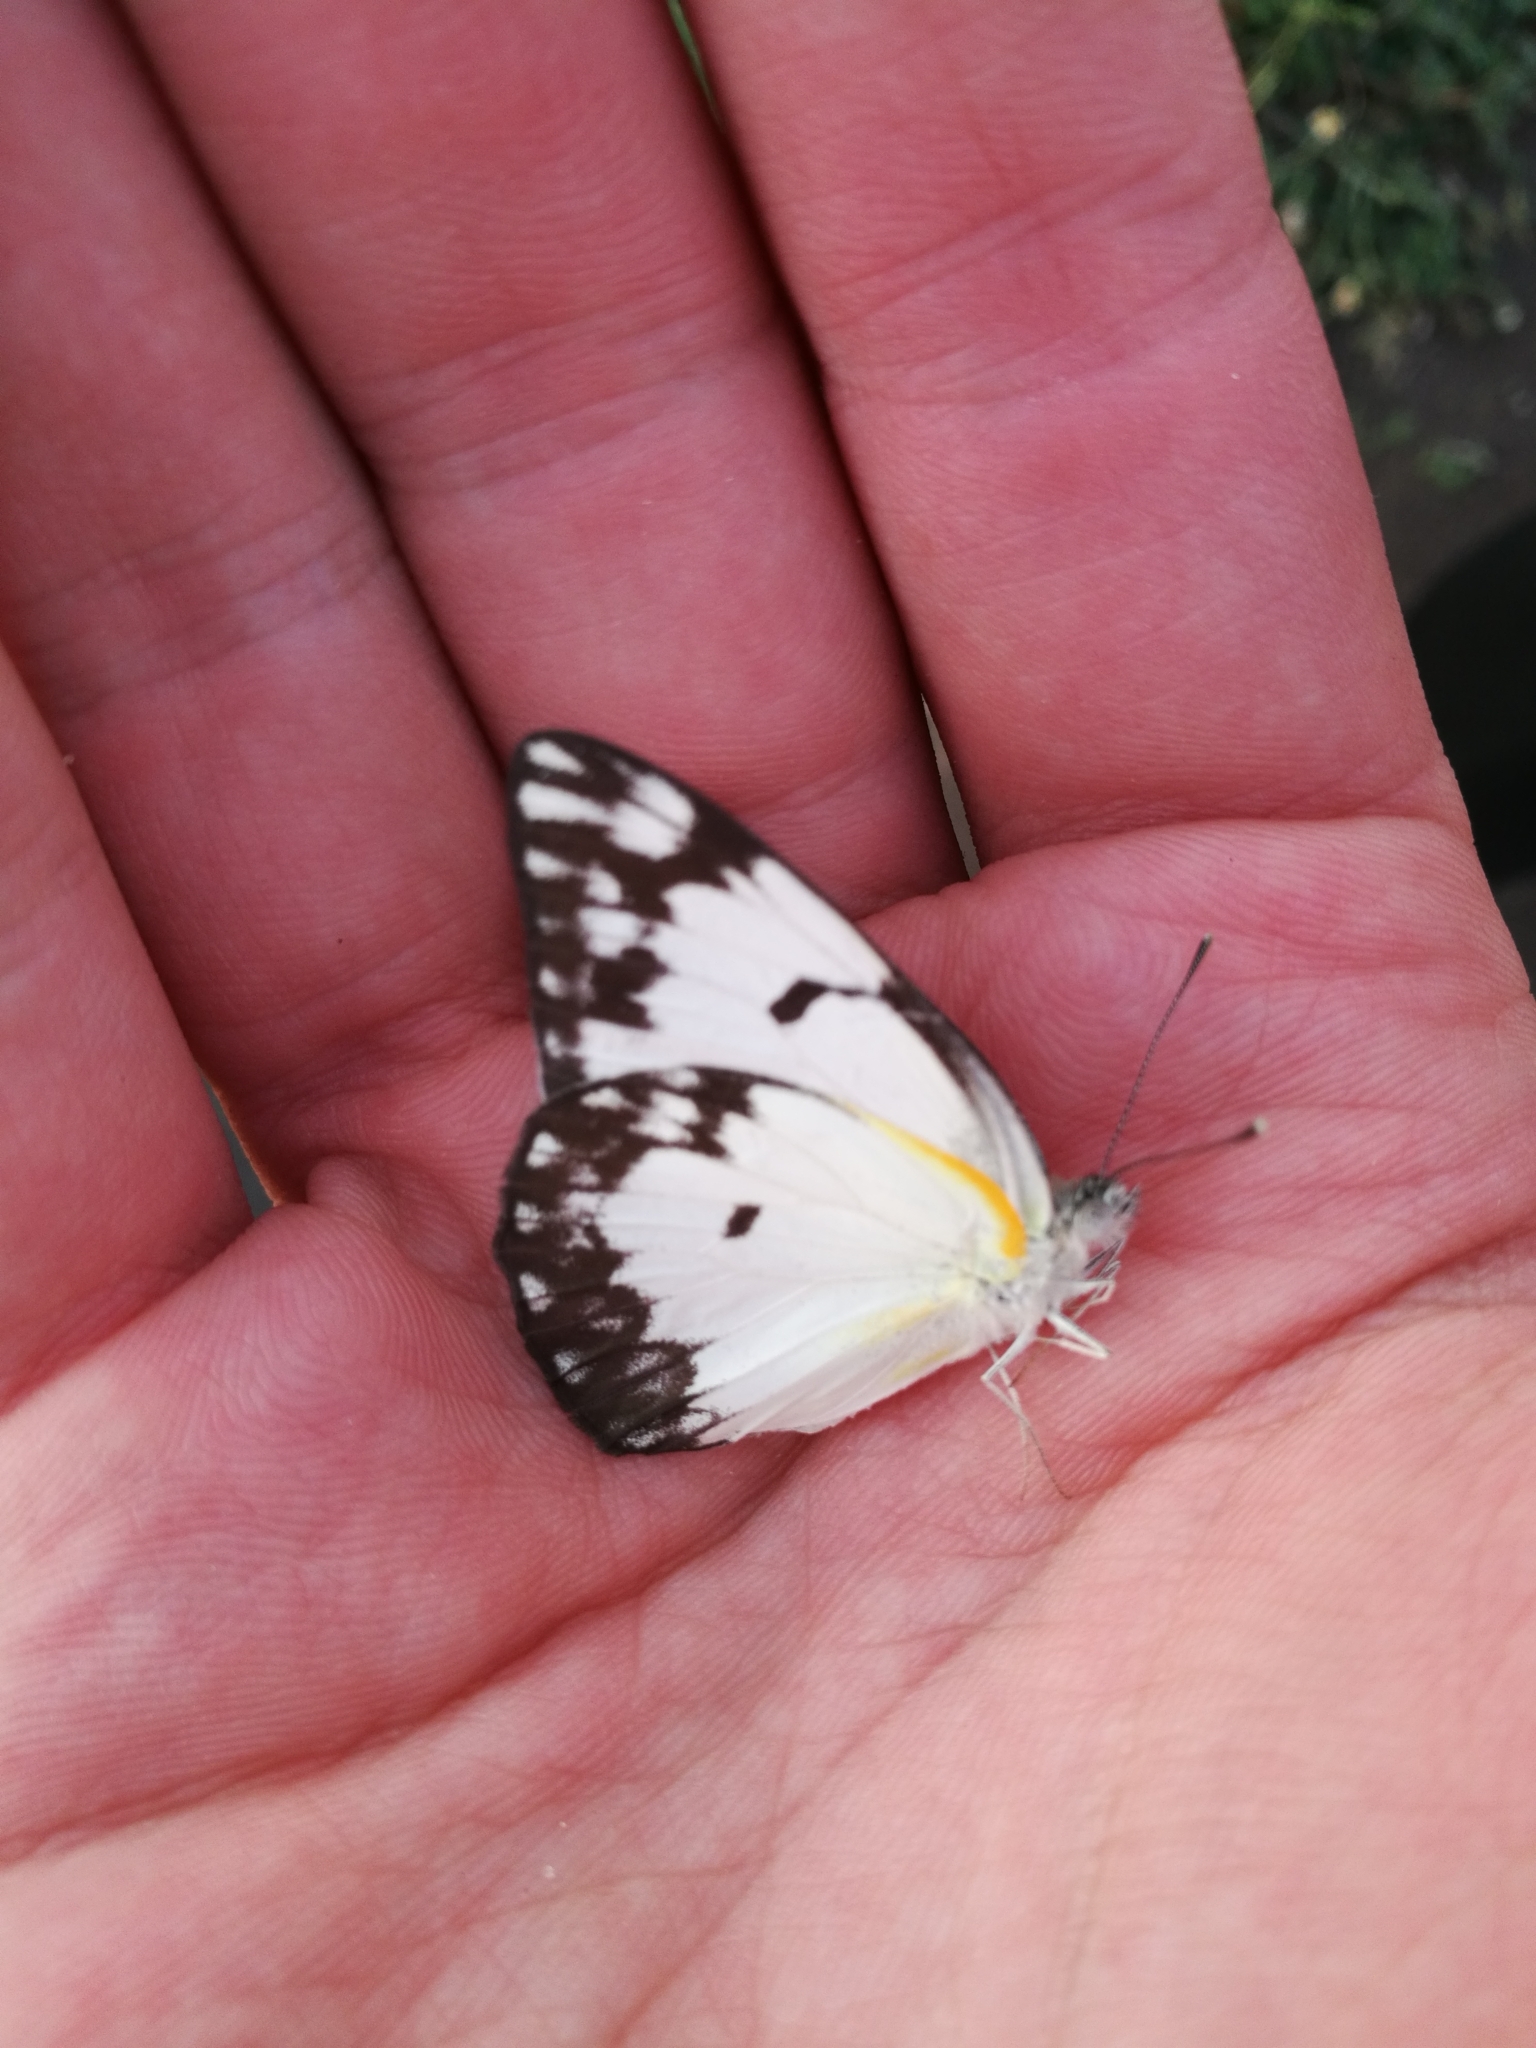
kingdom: Animalia
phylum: Arthropoda
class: Insecta
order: Lepidoptera
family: Pieridae
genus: Belenois
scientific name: Belenois gidica
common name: Pointed caper white
